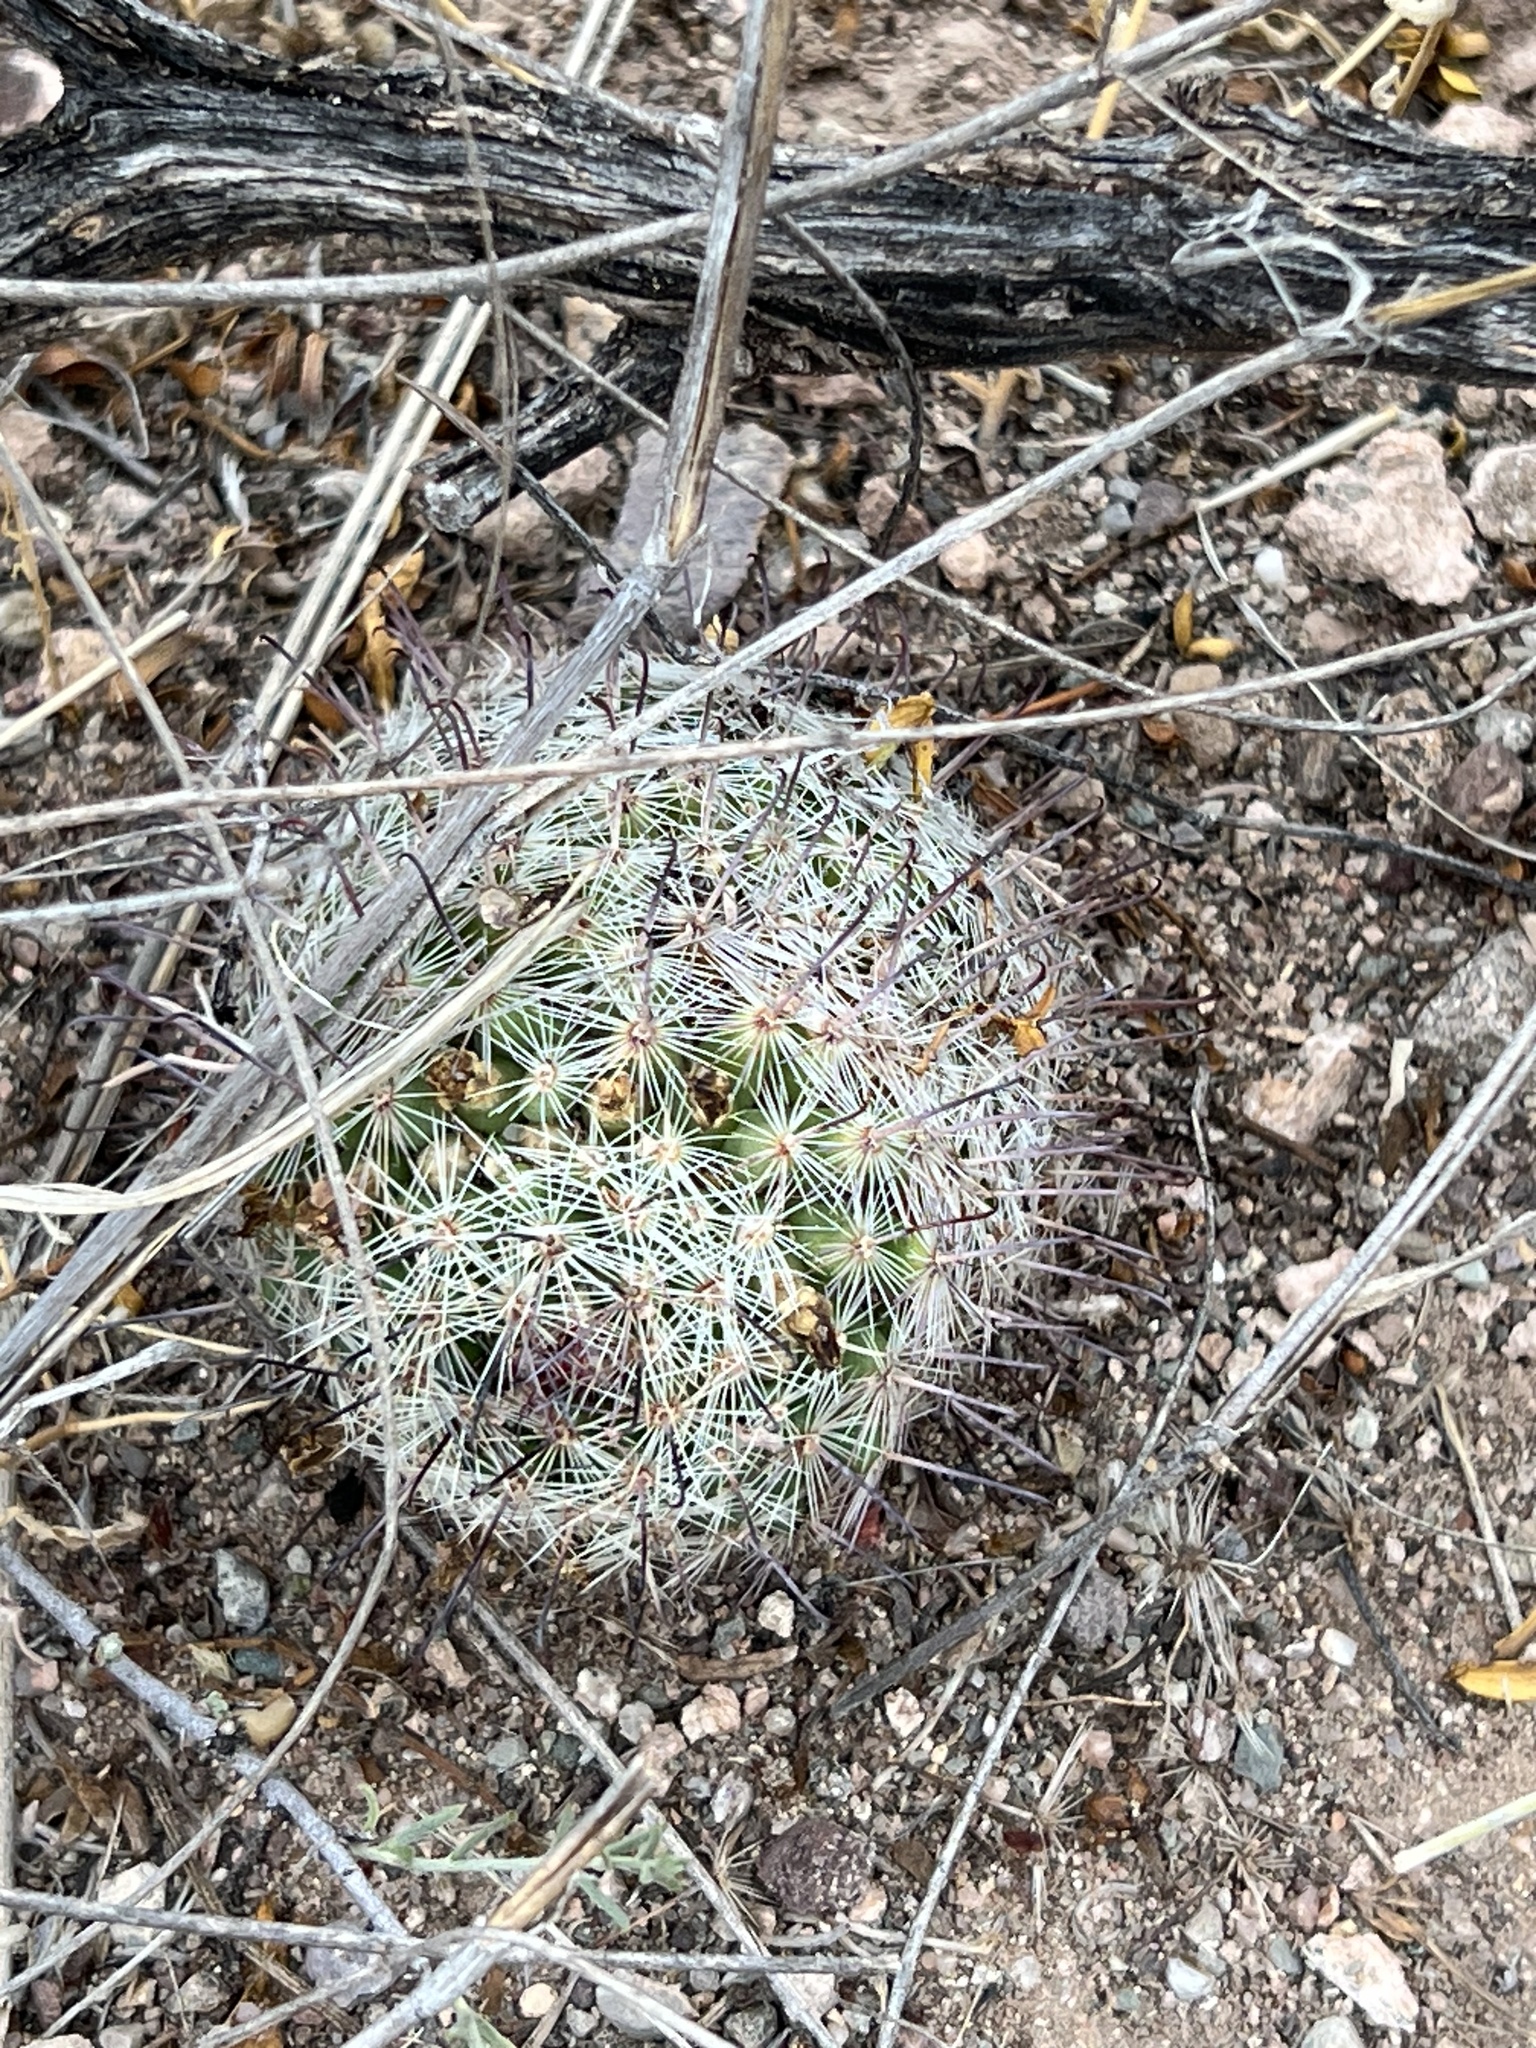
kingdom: Plantae
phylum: Tracheophyta
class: Magnoliopsida
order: Caryophyllales
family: Cactaceae
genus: Cochemiea
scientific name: Cochemiea grahamii
